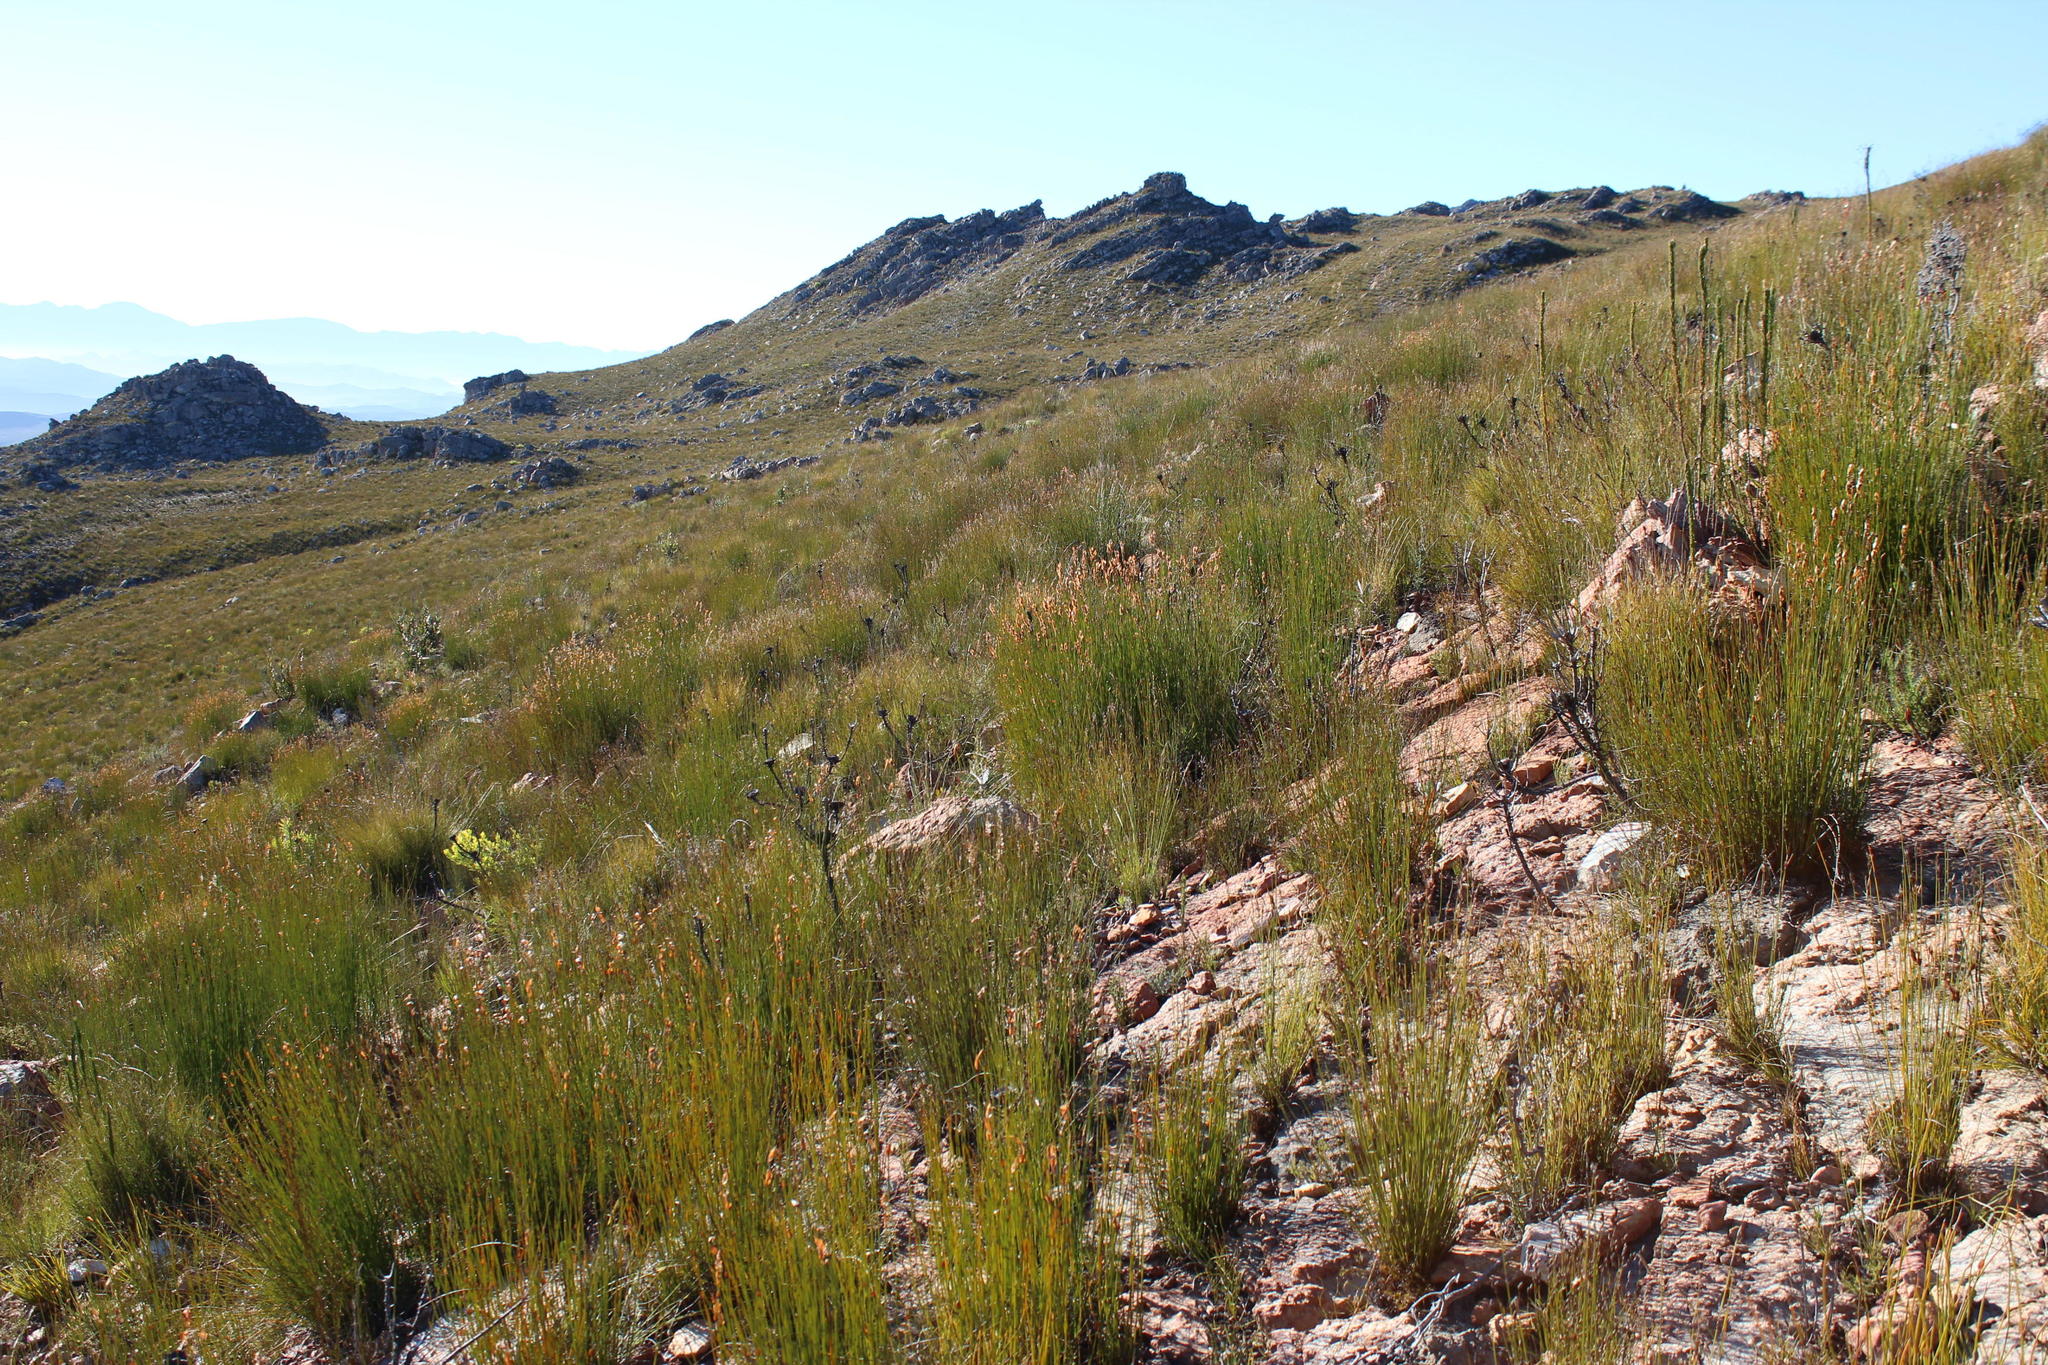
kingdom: Plantae
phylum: Tracheophyta
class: Liliopsida
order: Poales
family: Restionaceae
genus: Askidiosperma
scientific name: Askidiosperma andreaeanum
